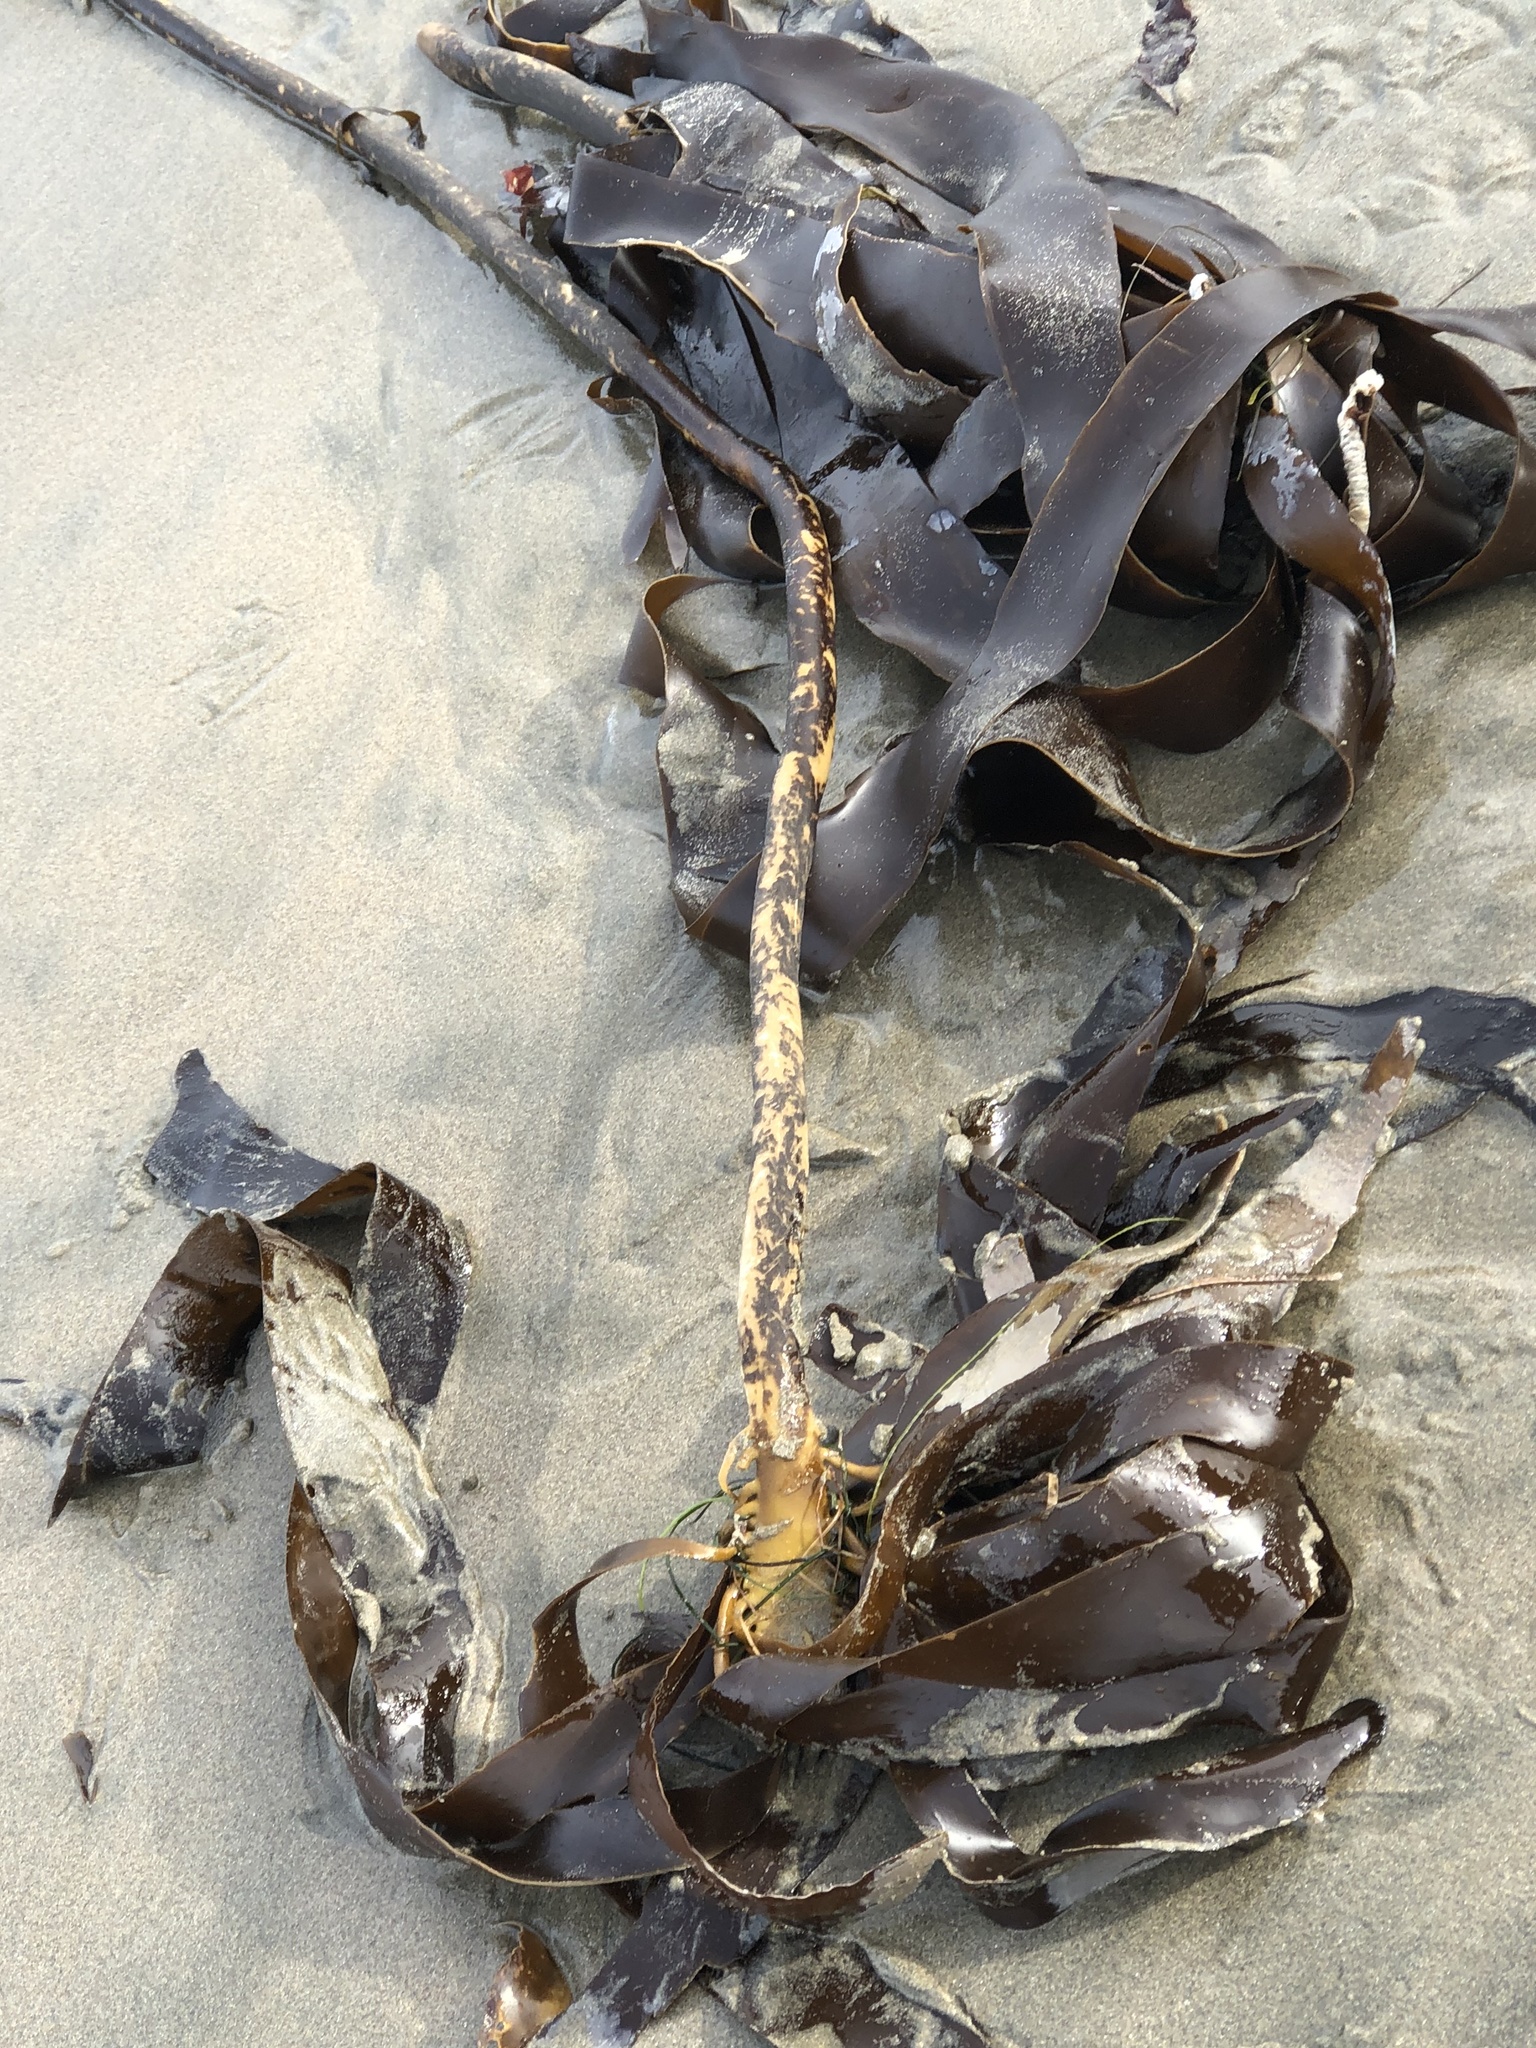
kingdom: Chromista
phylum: Ochrophyta
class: Phaeophyceae
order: Laminariales
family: Alariaceae
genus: Pterygophora
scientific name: Pterygophora californica
